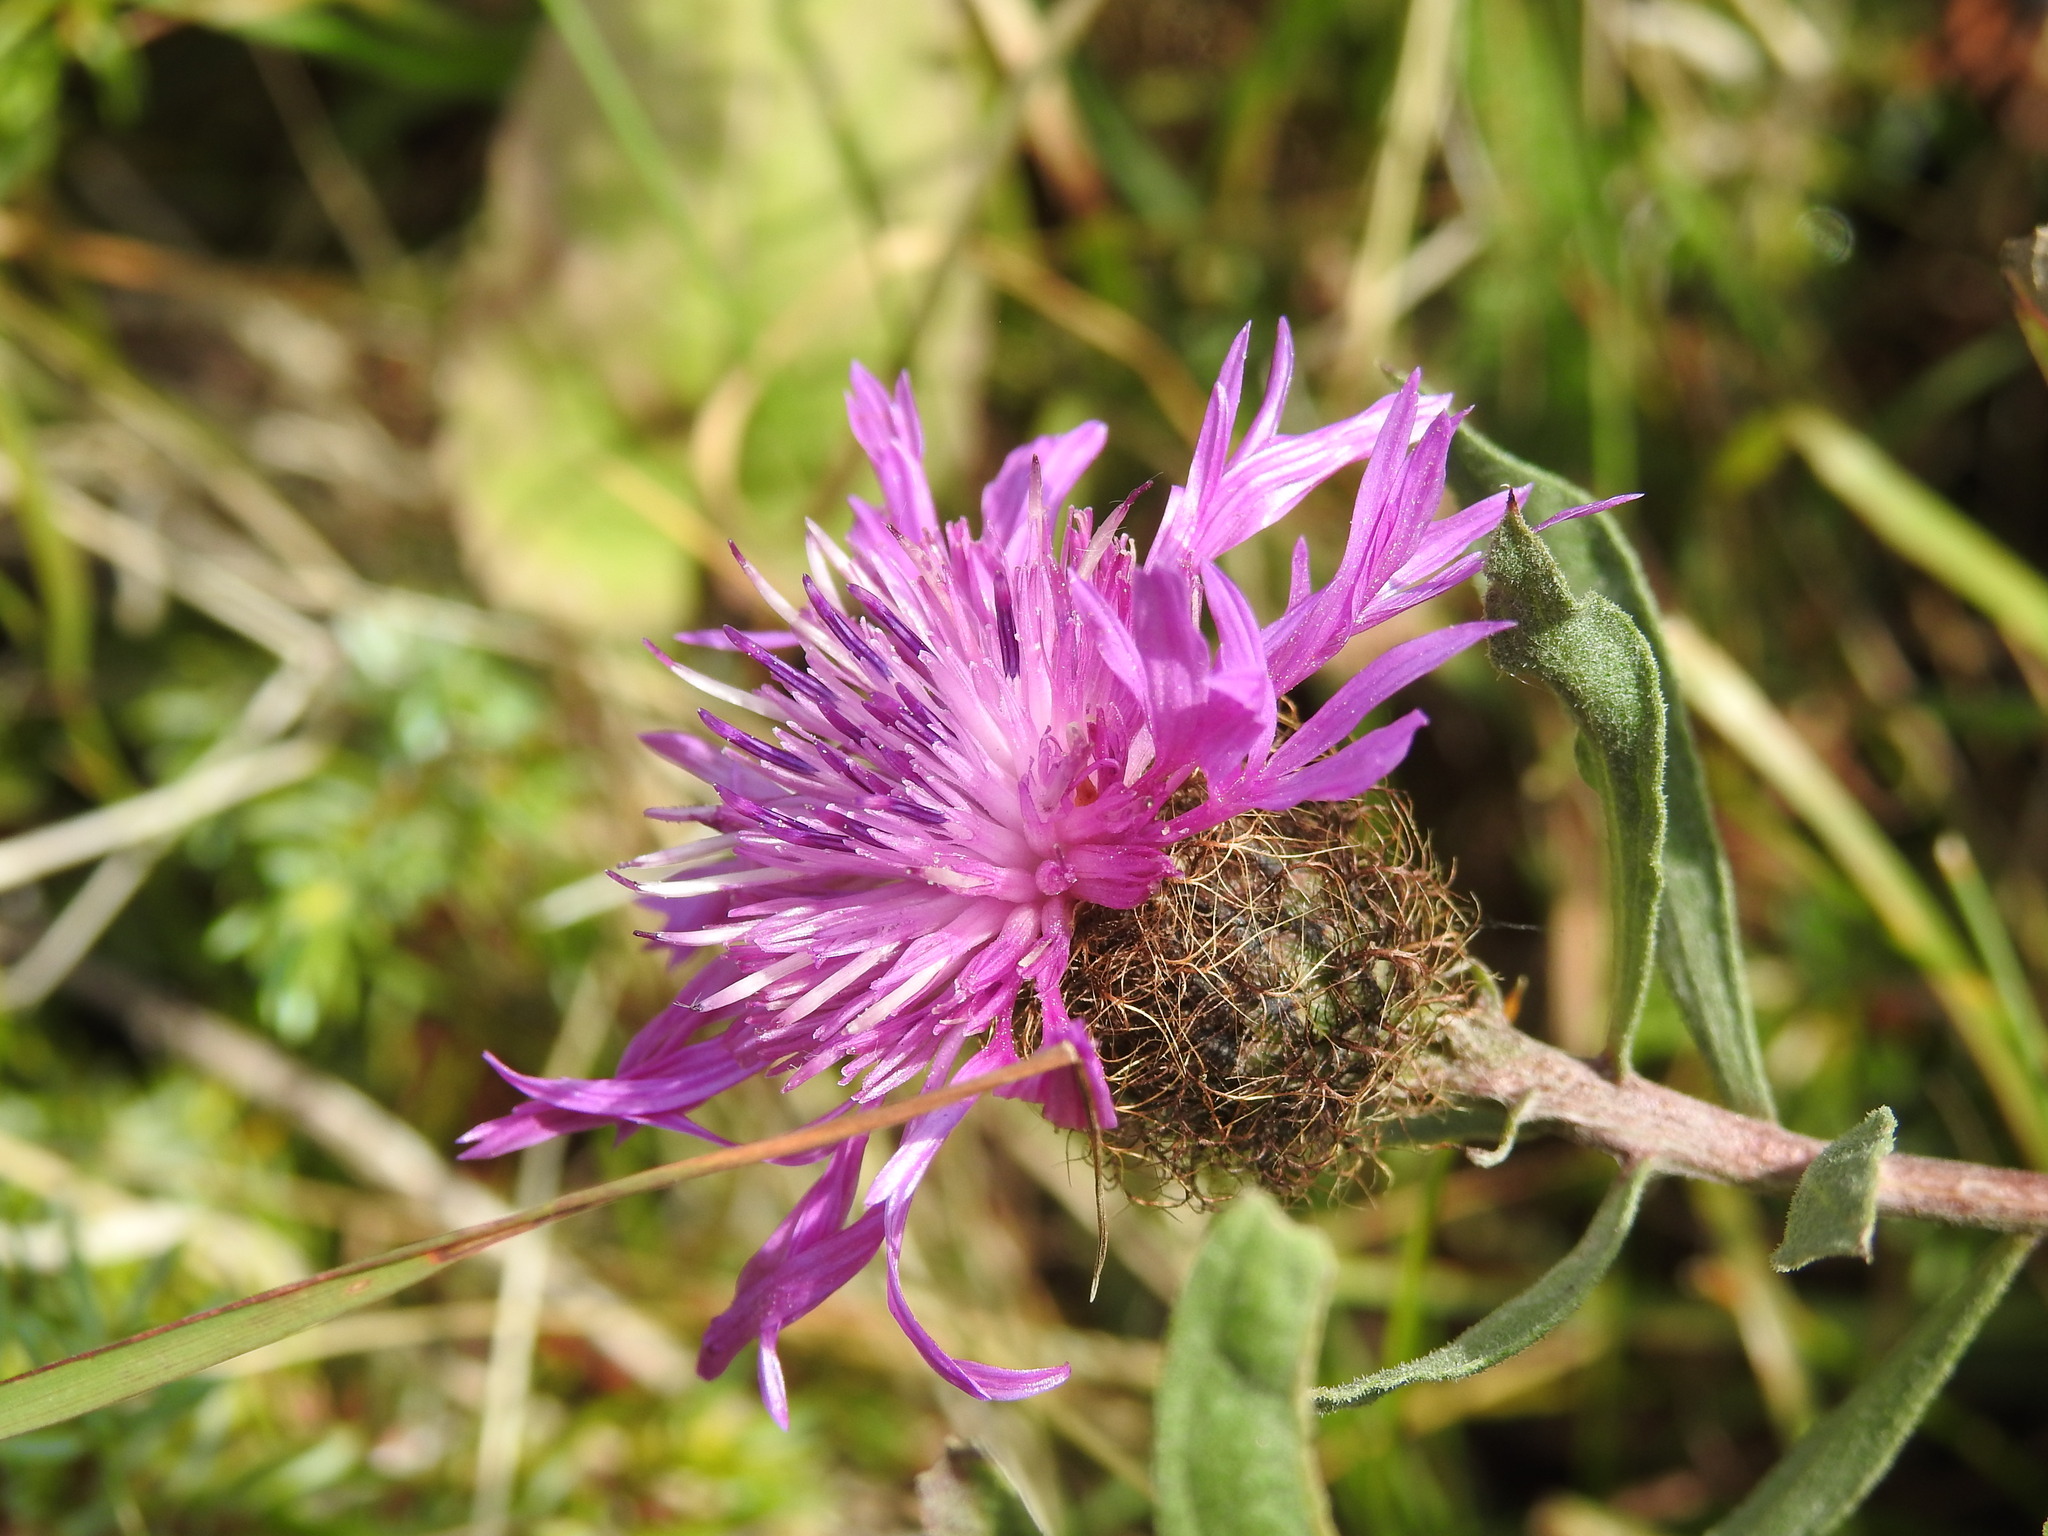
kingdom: Plantae
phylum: Tracheophyta
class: Magnoliopsida
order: Asterales
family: Asteraceae
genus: Centaurea
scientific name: Centaurea uniflora
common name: Singleflower knapweed
